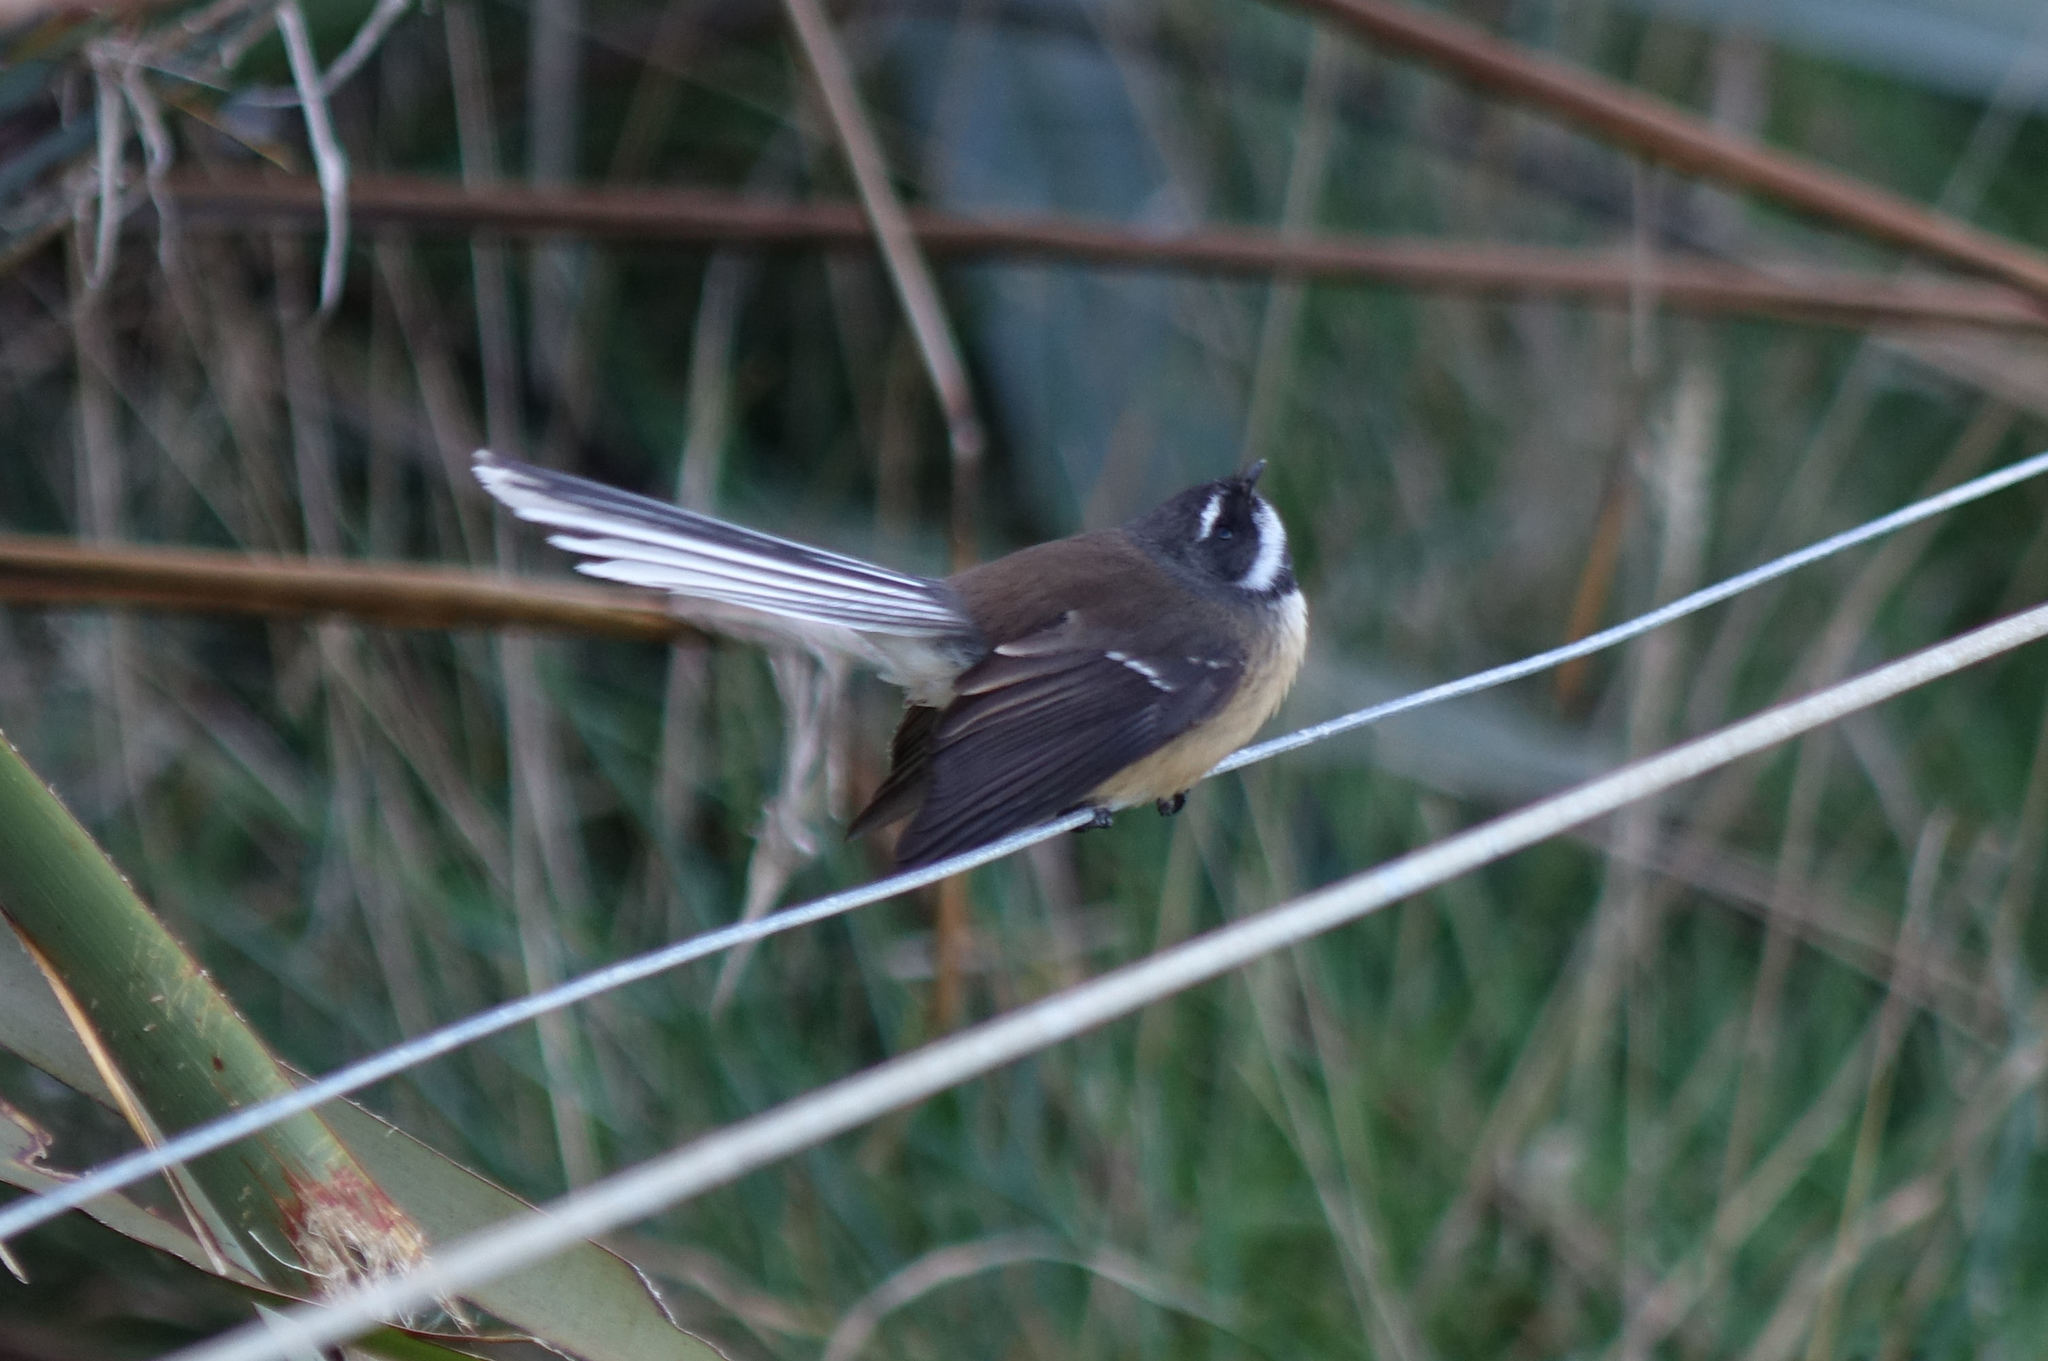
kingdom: Animalia
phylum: Chordata
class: Aves
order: Passeriformes
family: Rhipiduridae
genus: Rhipidura
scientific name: Rhipidura fuliginosa
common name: New zealand fantail
